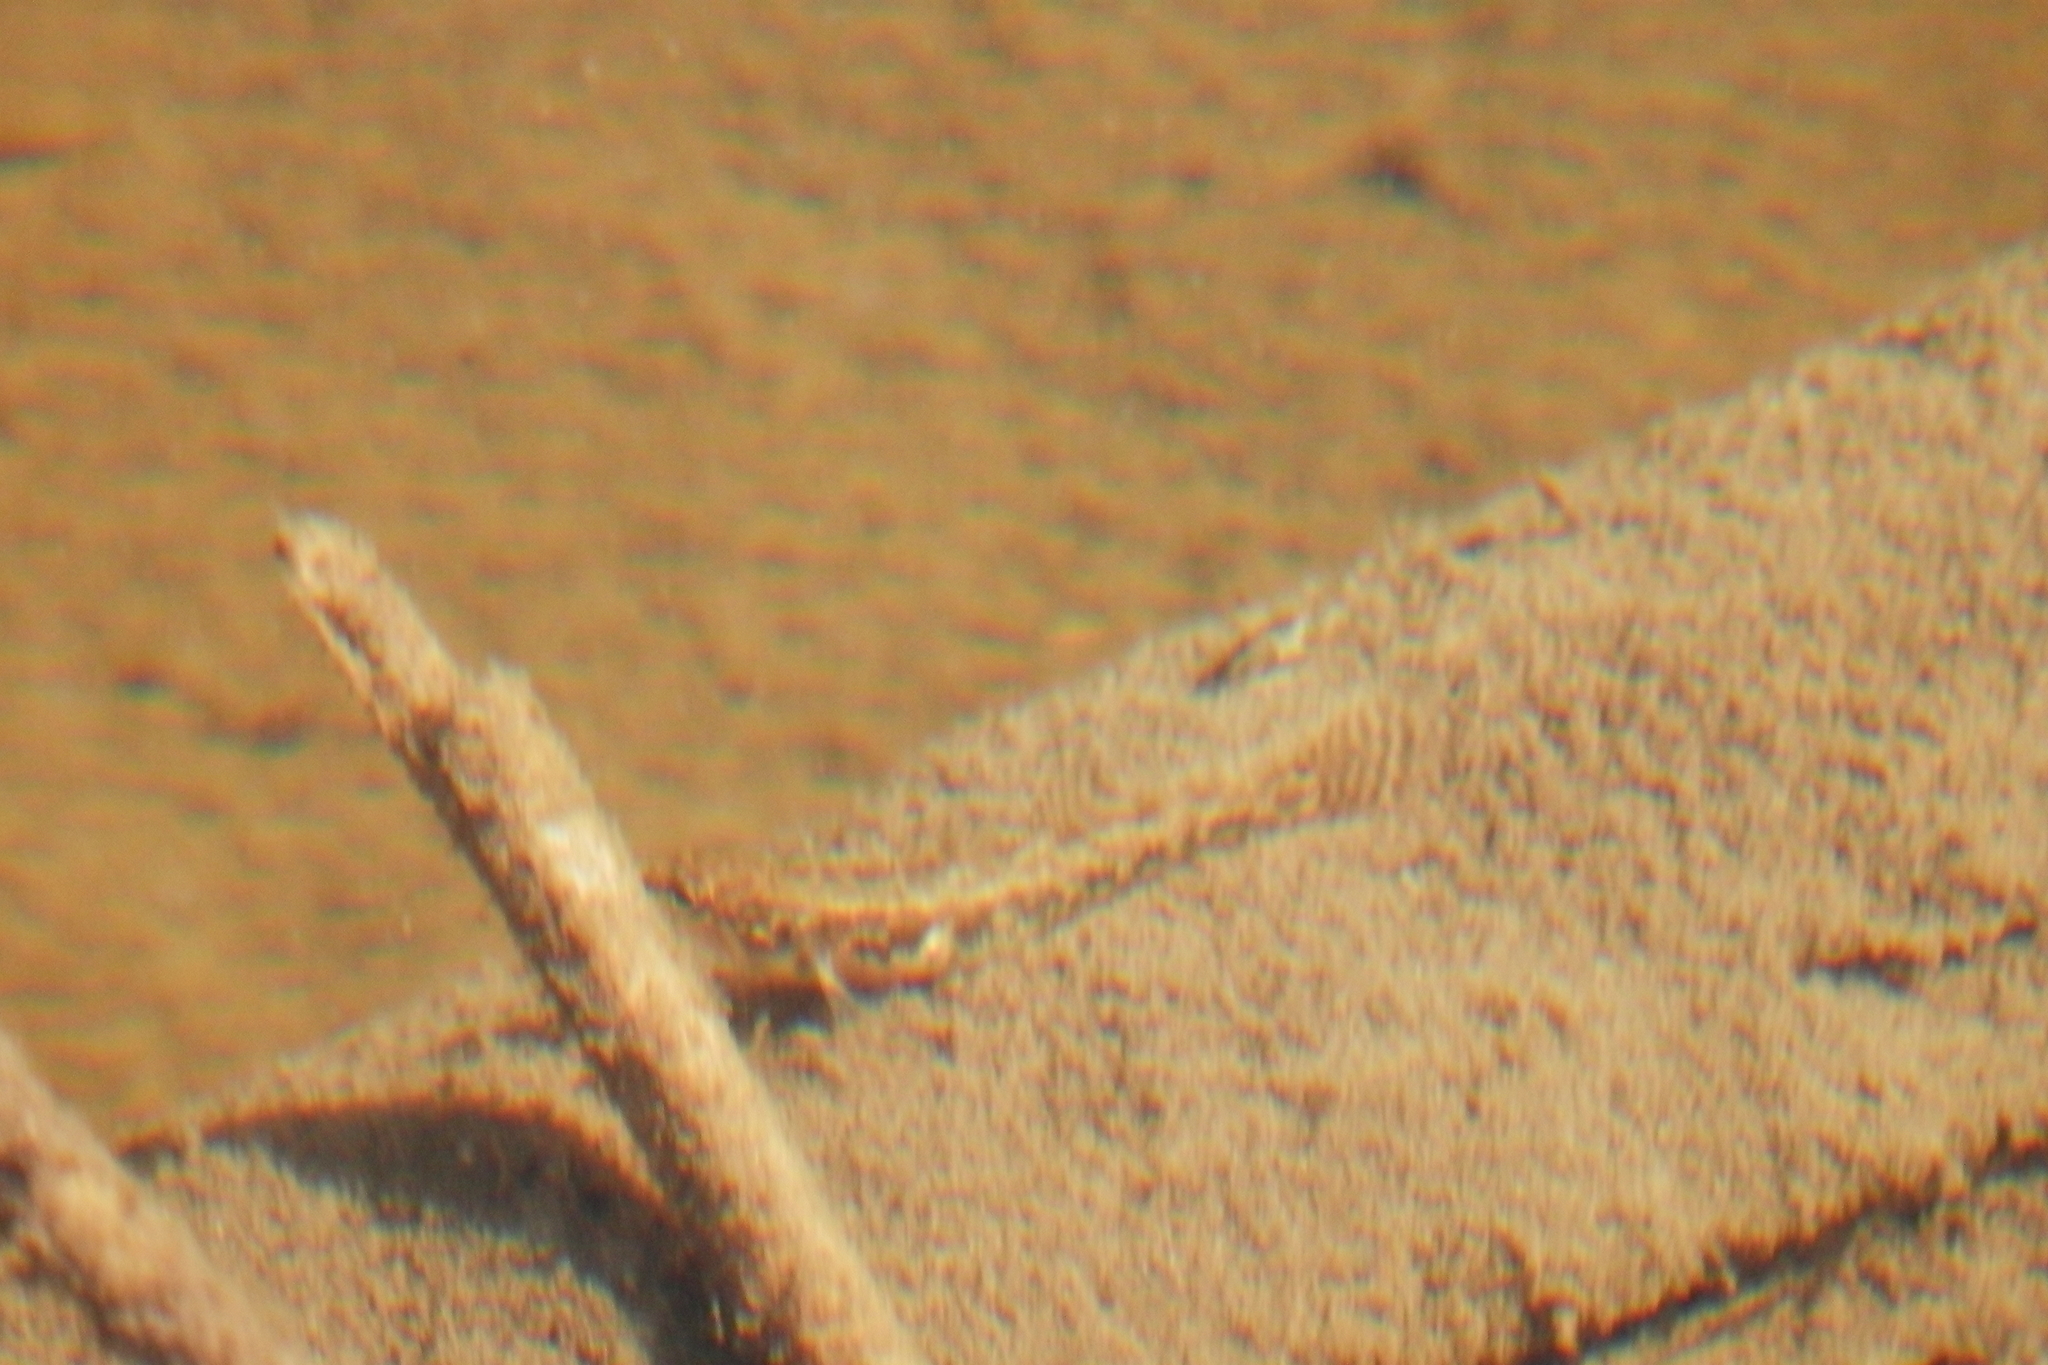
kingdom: Animalia
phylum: Chordata
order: Perciformes
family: Percidae
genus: Etheostoma
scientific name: Etheostoma exile
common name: Iowa darter
